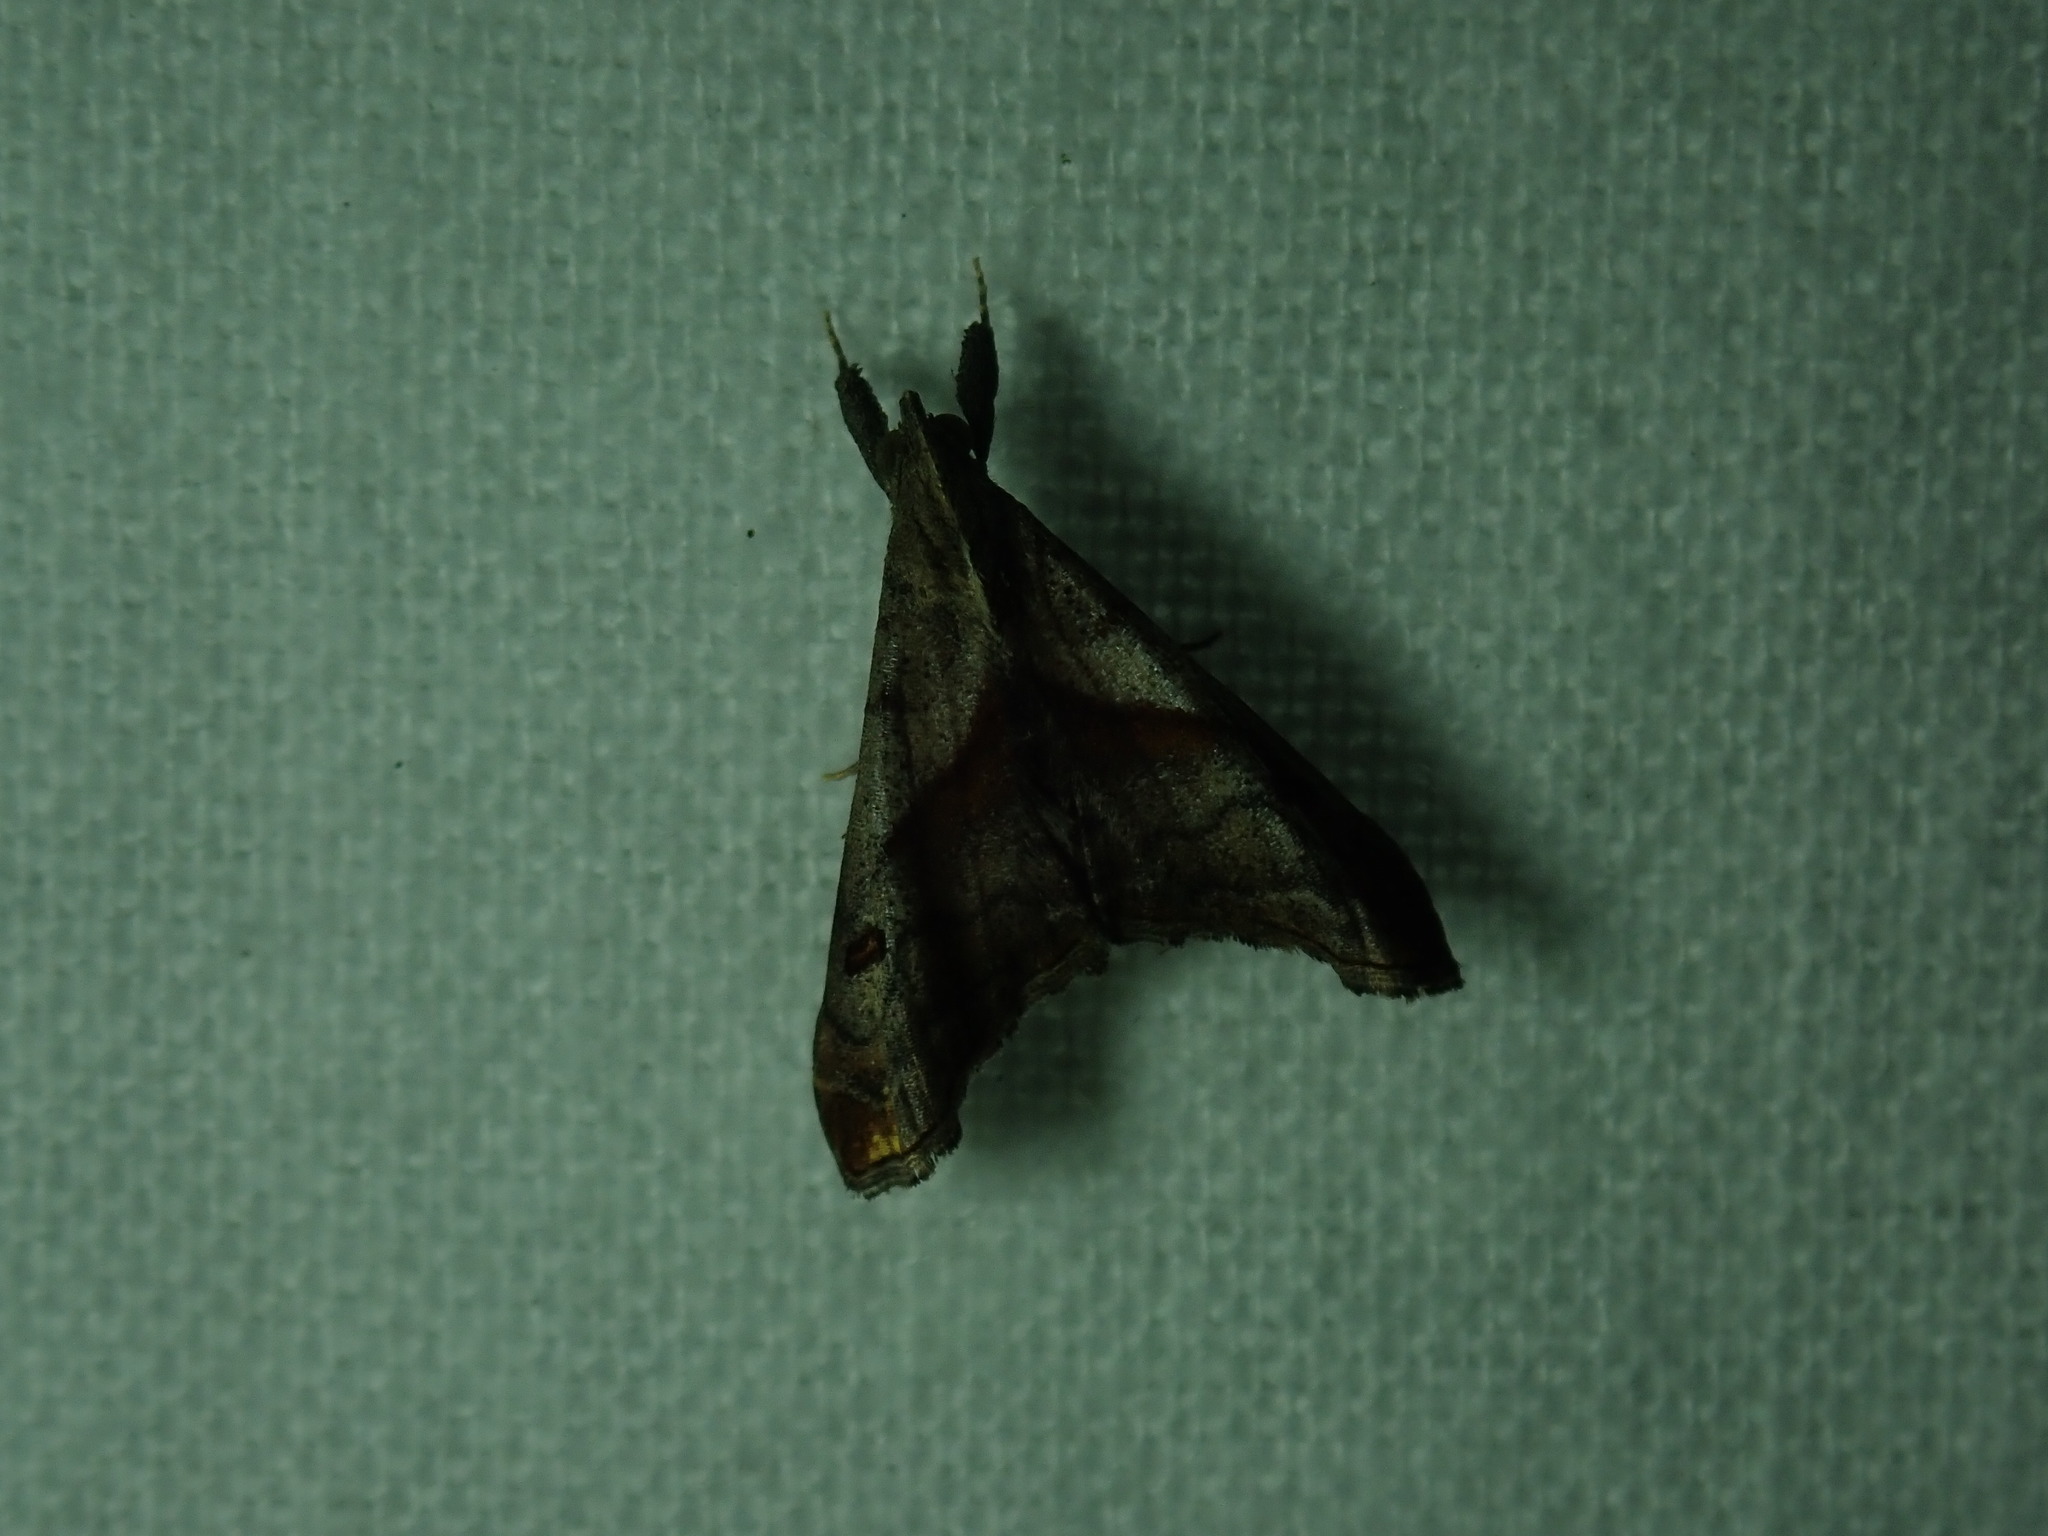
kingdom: Animalia
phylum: Arthropoda
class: Insecta
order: Lepidoptera
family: Erebidae
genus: Palthis
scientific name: Palthis angulalis
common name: Dark-spotted palthis moth
